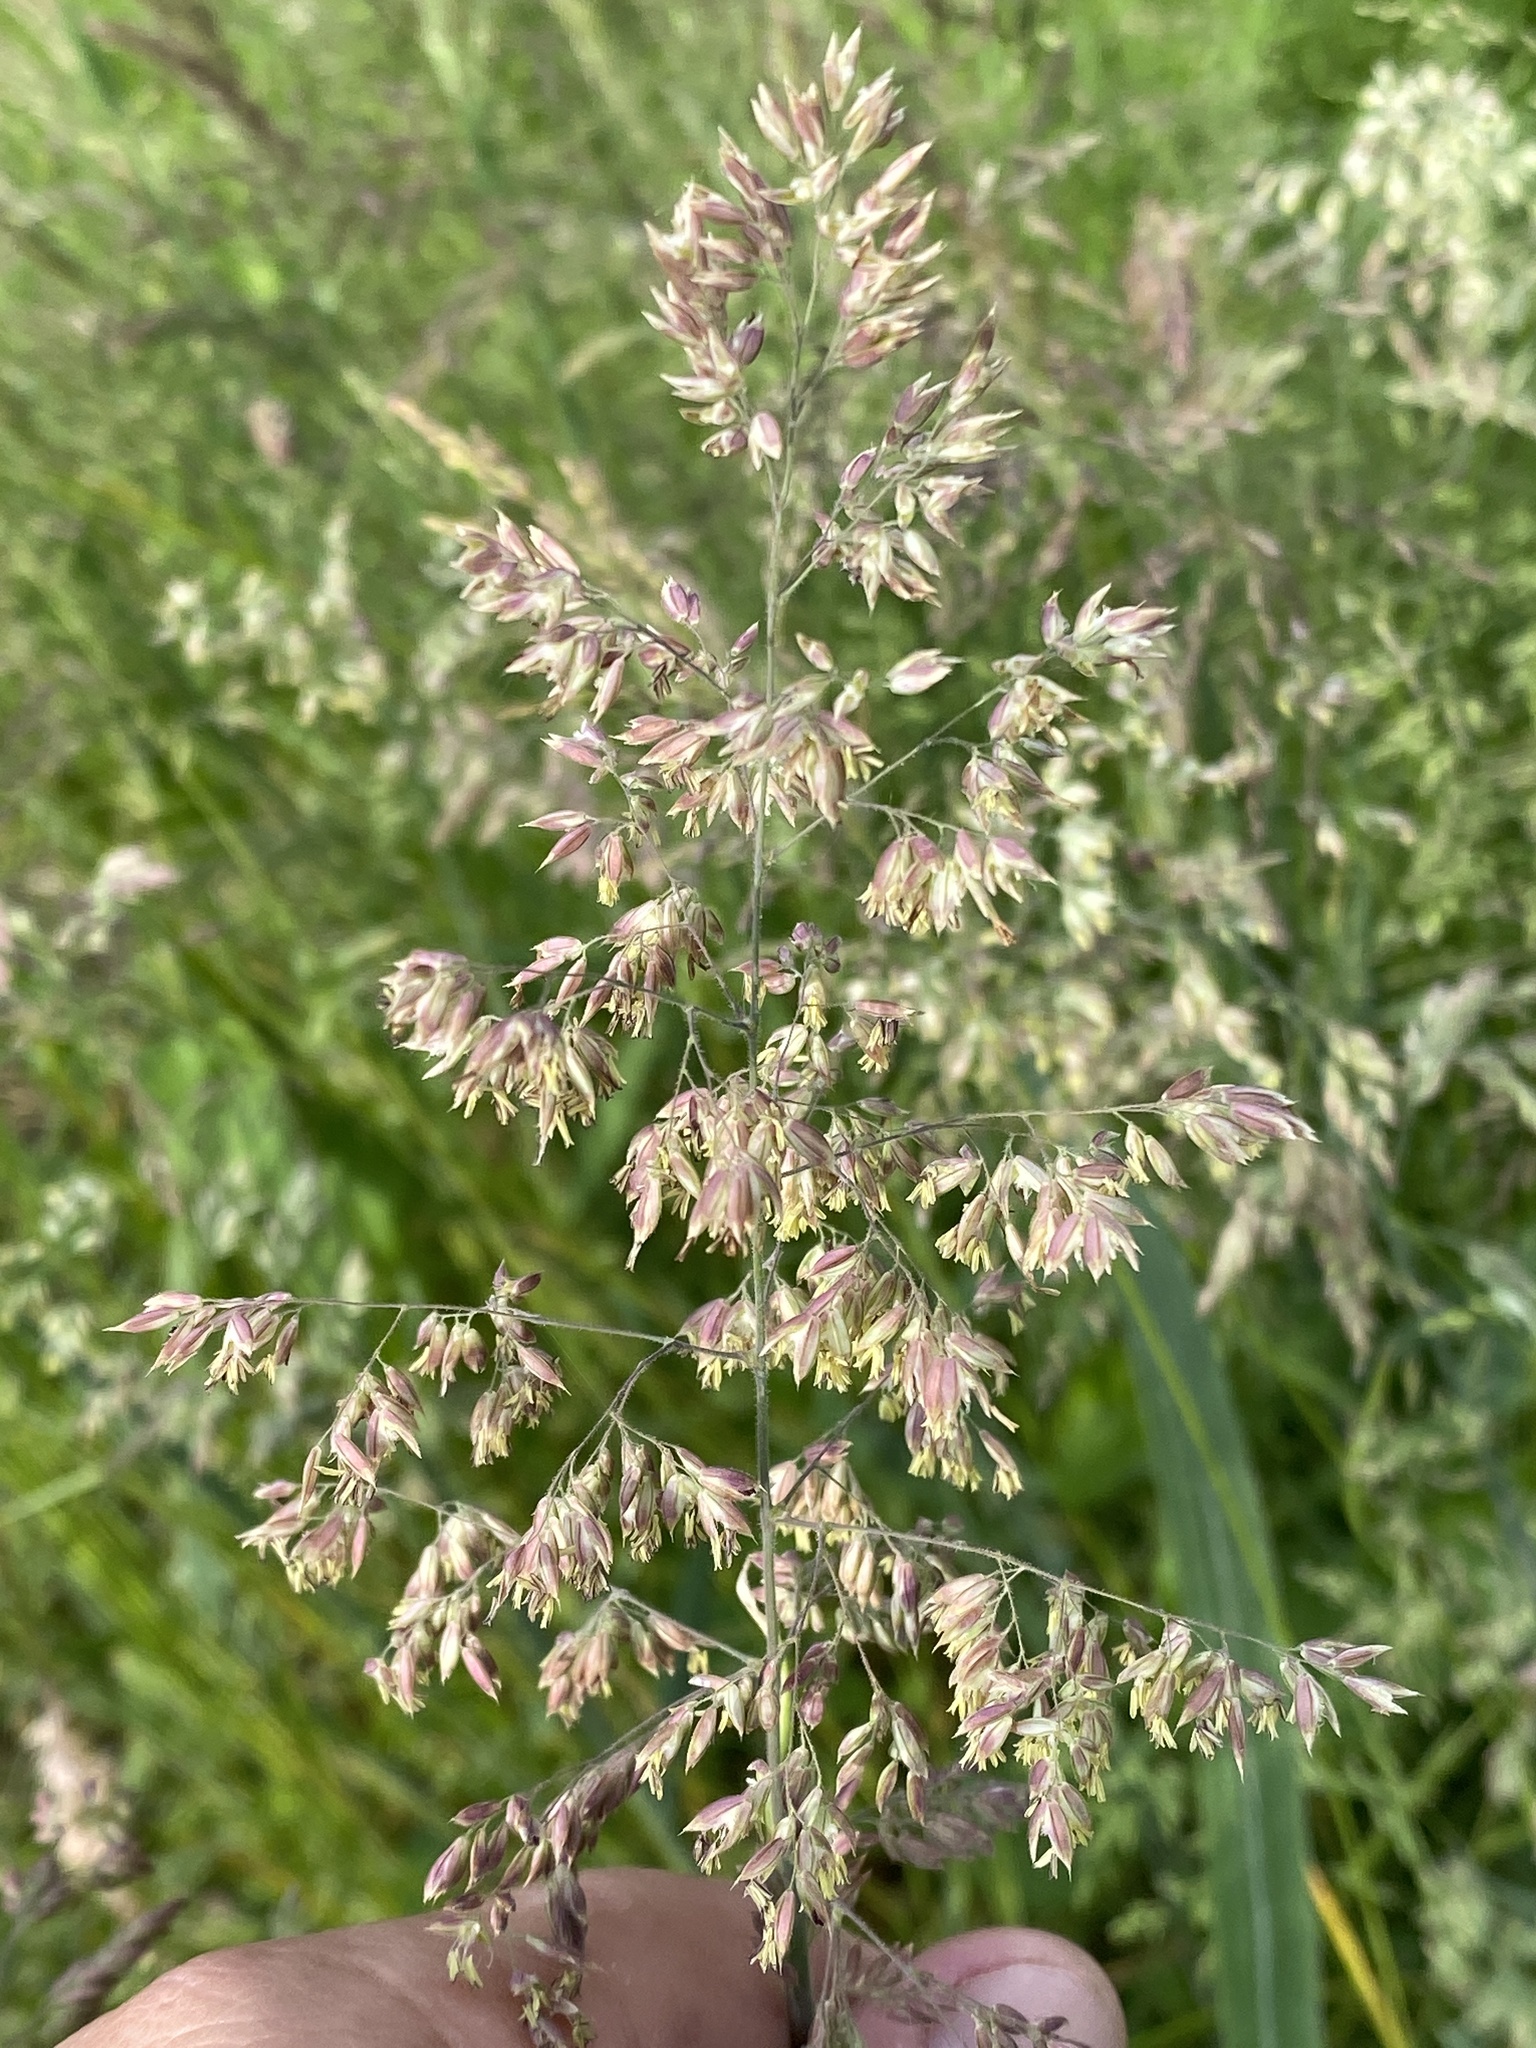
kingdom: Plantae
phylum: Tracheophyta
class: Liliopsida
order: Poales
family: Poaceae
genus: Holcus
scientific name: Holcus lanatus
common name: Yorkshire-fog
